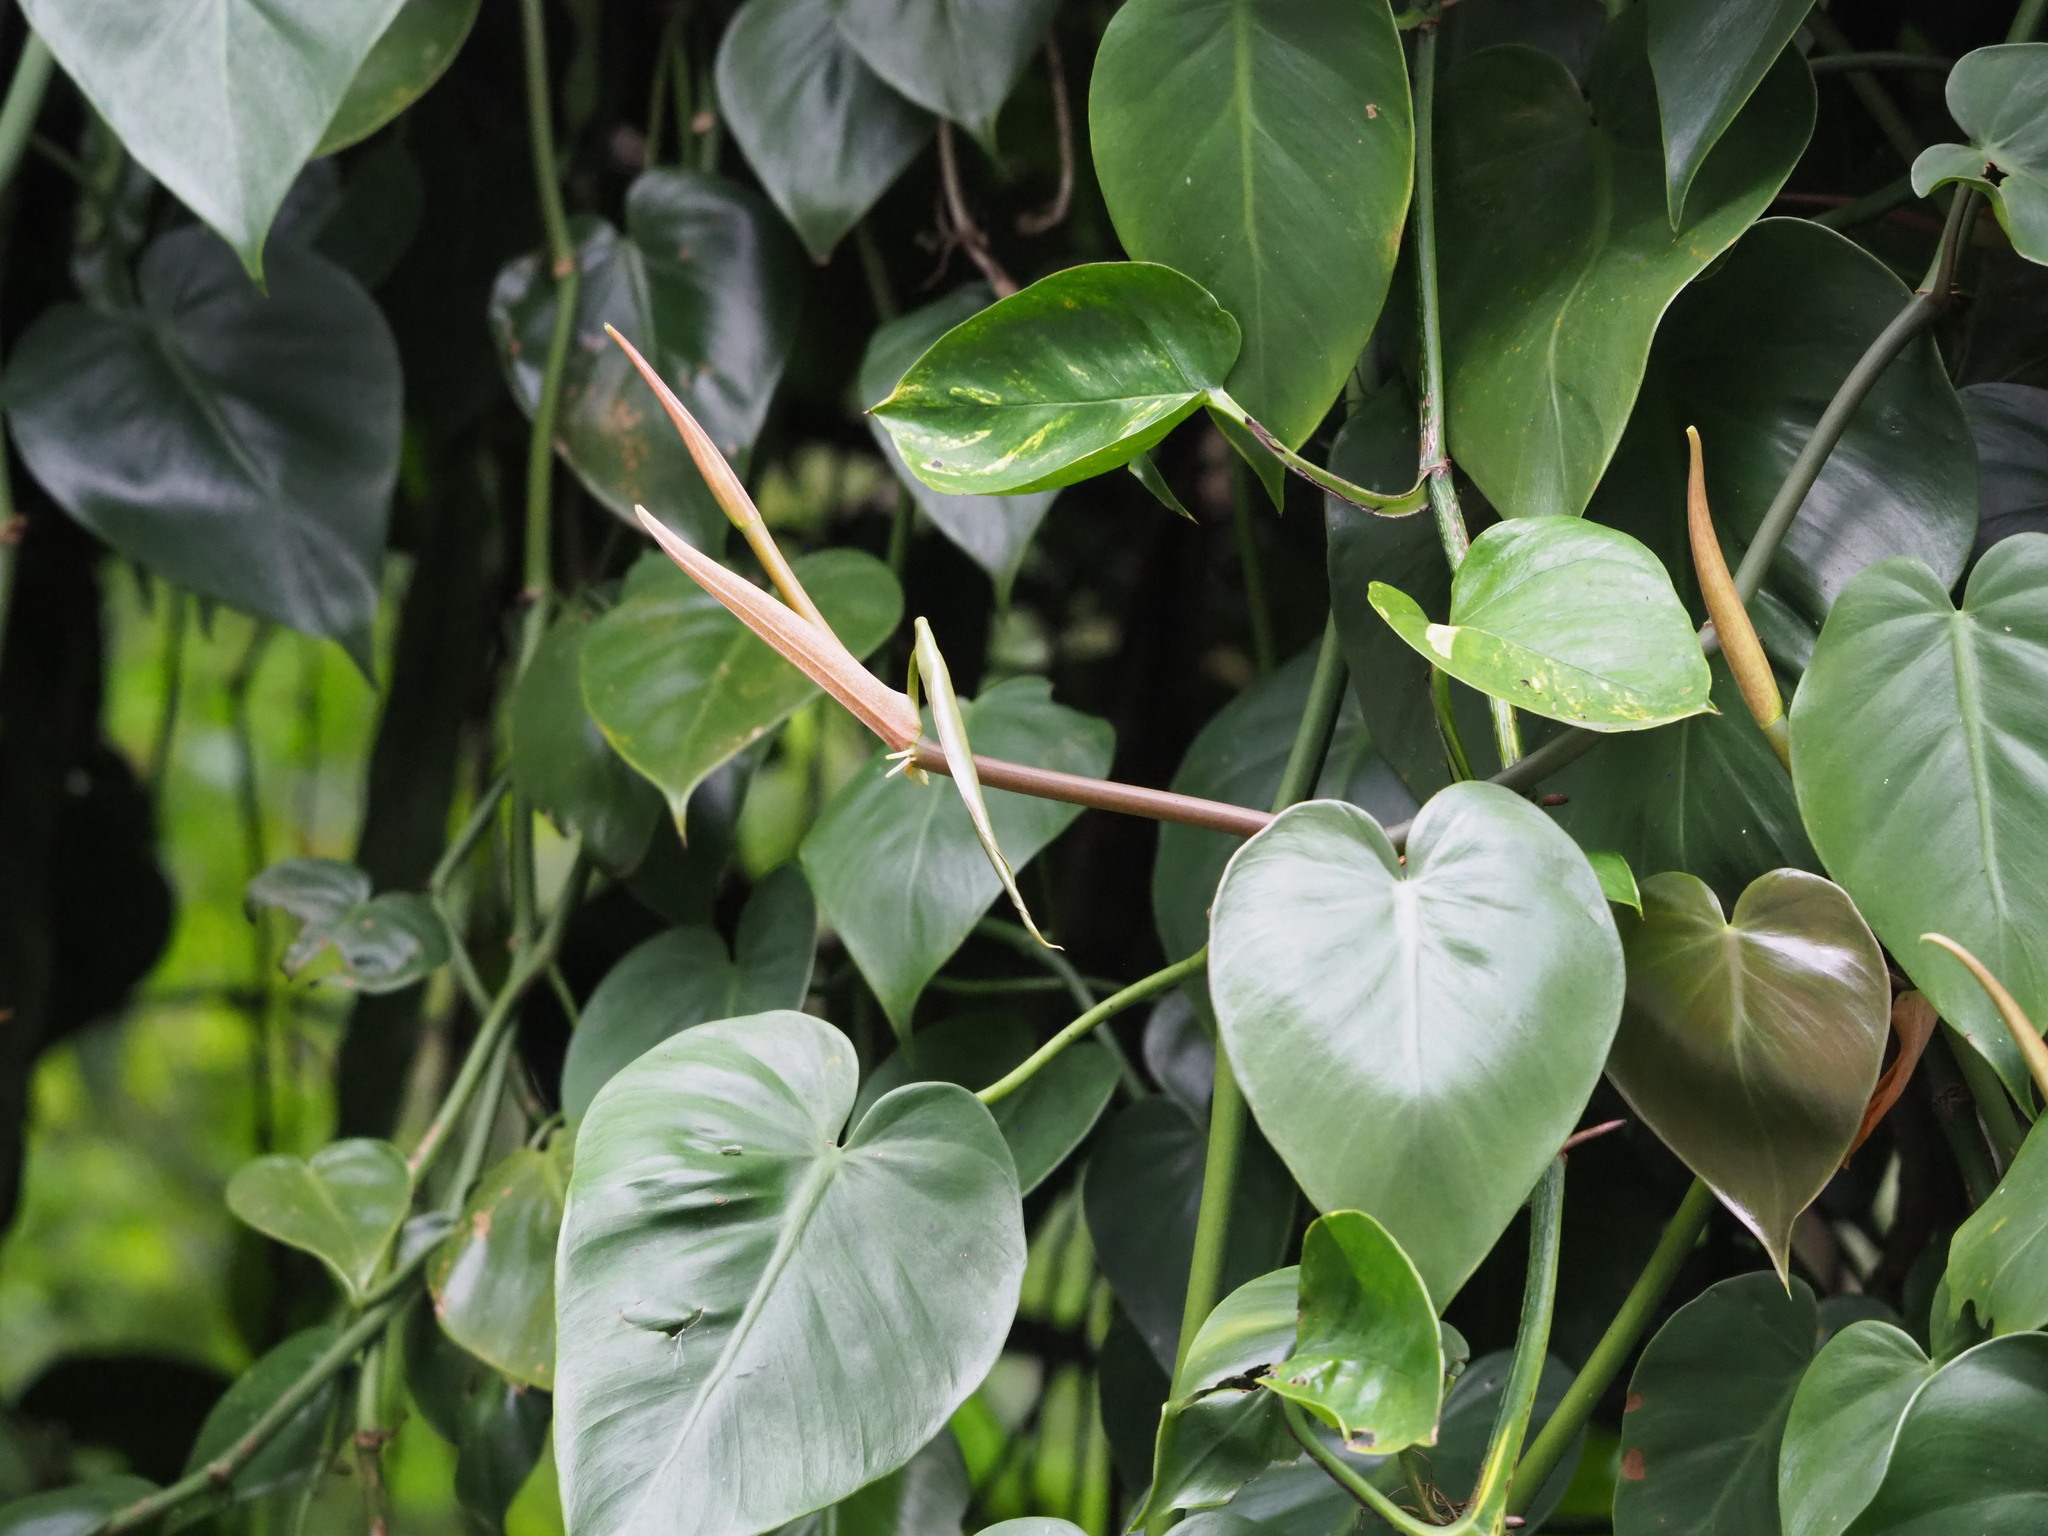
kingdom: Plantae
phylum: Tracheophyta
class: Liliopsida
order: Alismatales
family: Araceae
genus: Philodendron
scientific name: Philodendron hederaceum
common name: Vilevine
